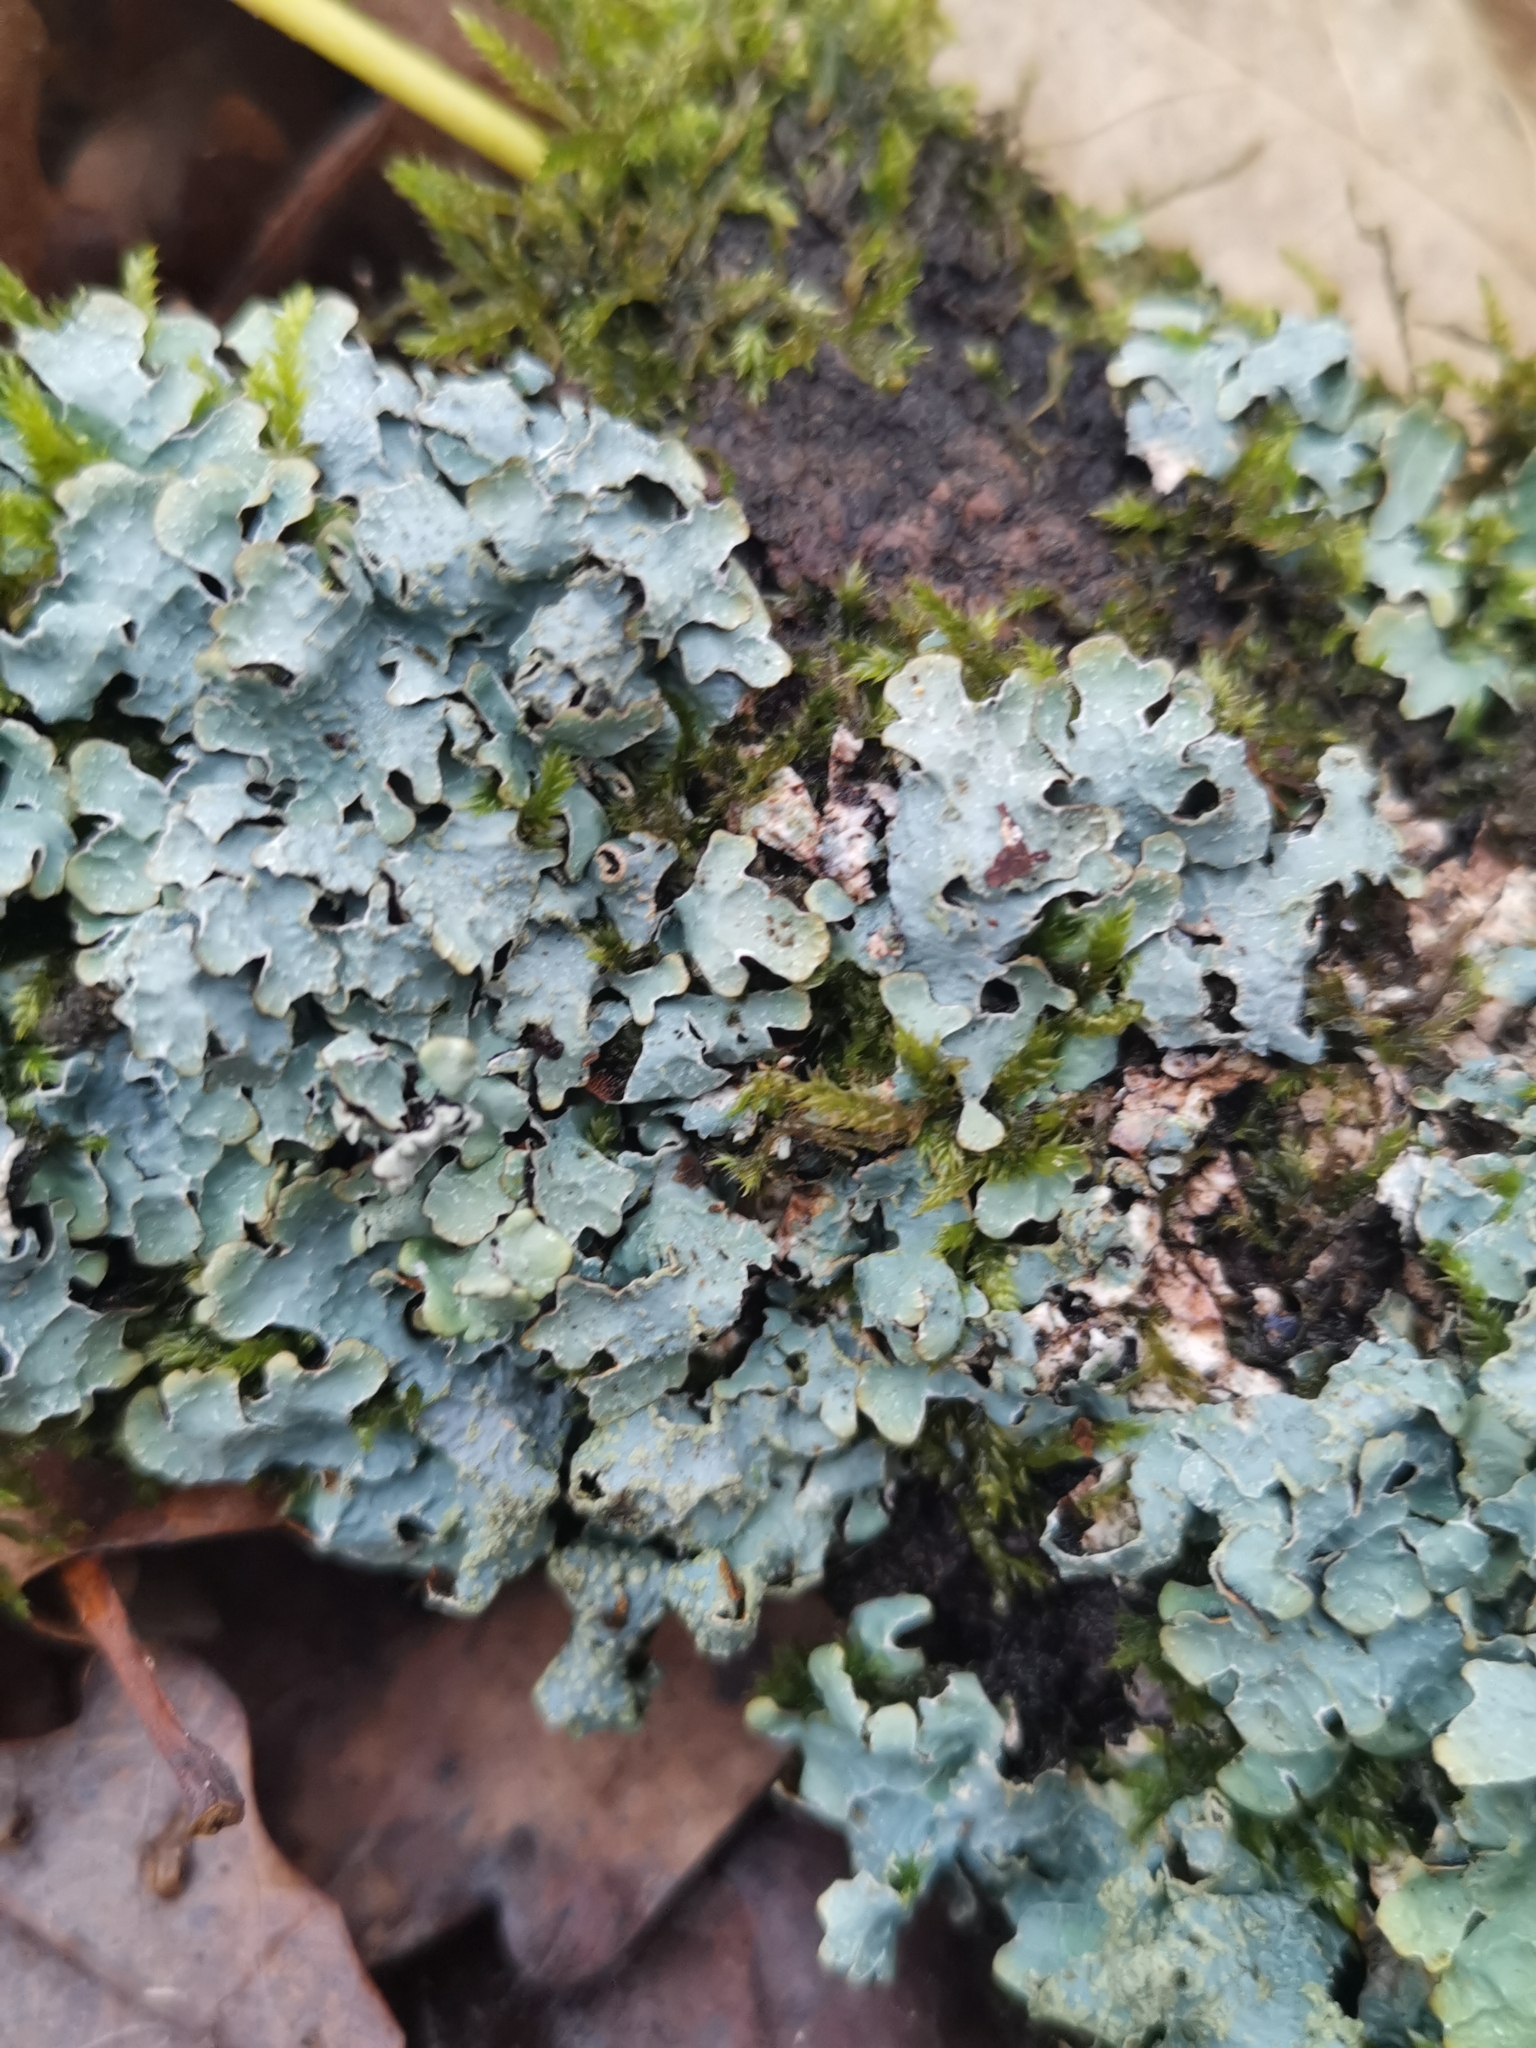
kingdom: Fungi
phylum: Ascomycota
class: Lecanoromycetes
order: Lecanorales
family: Parmeliaceae
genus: Parmelia
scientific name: Parmelia sulcata
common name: Netted shield lichen
